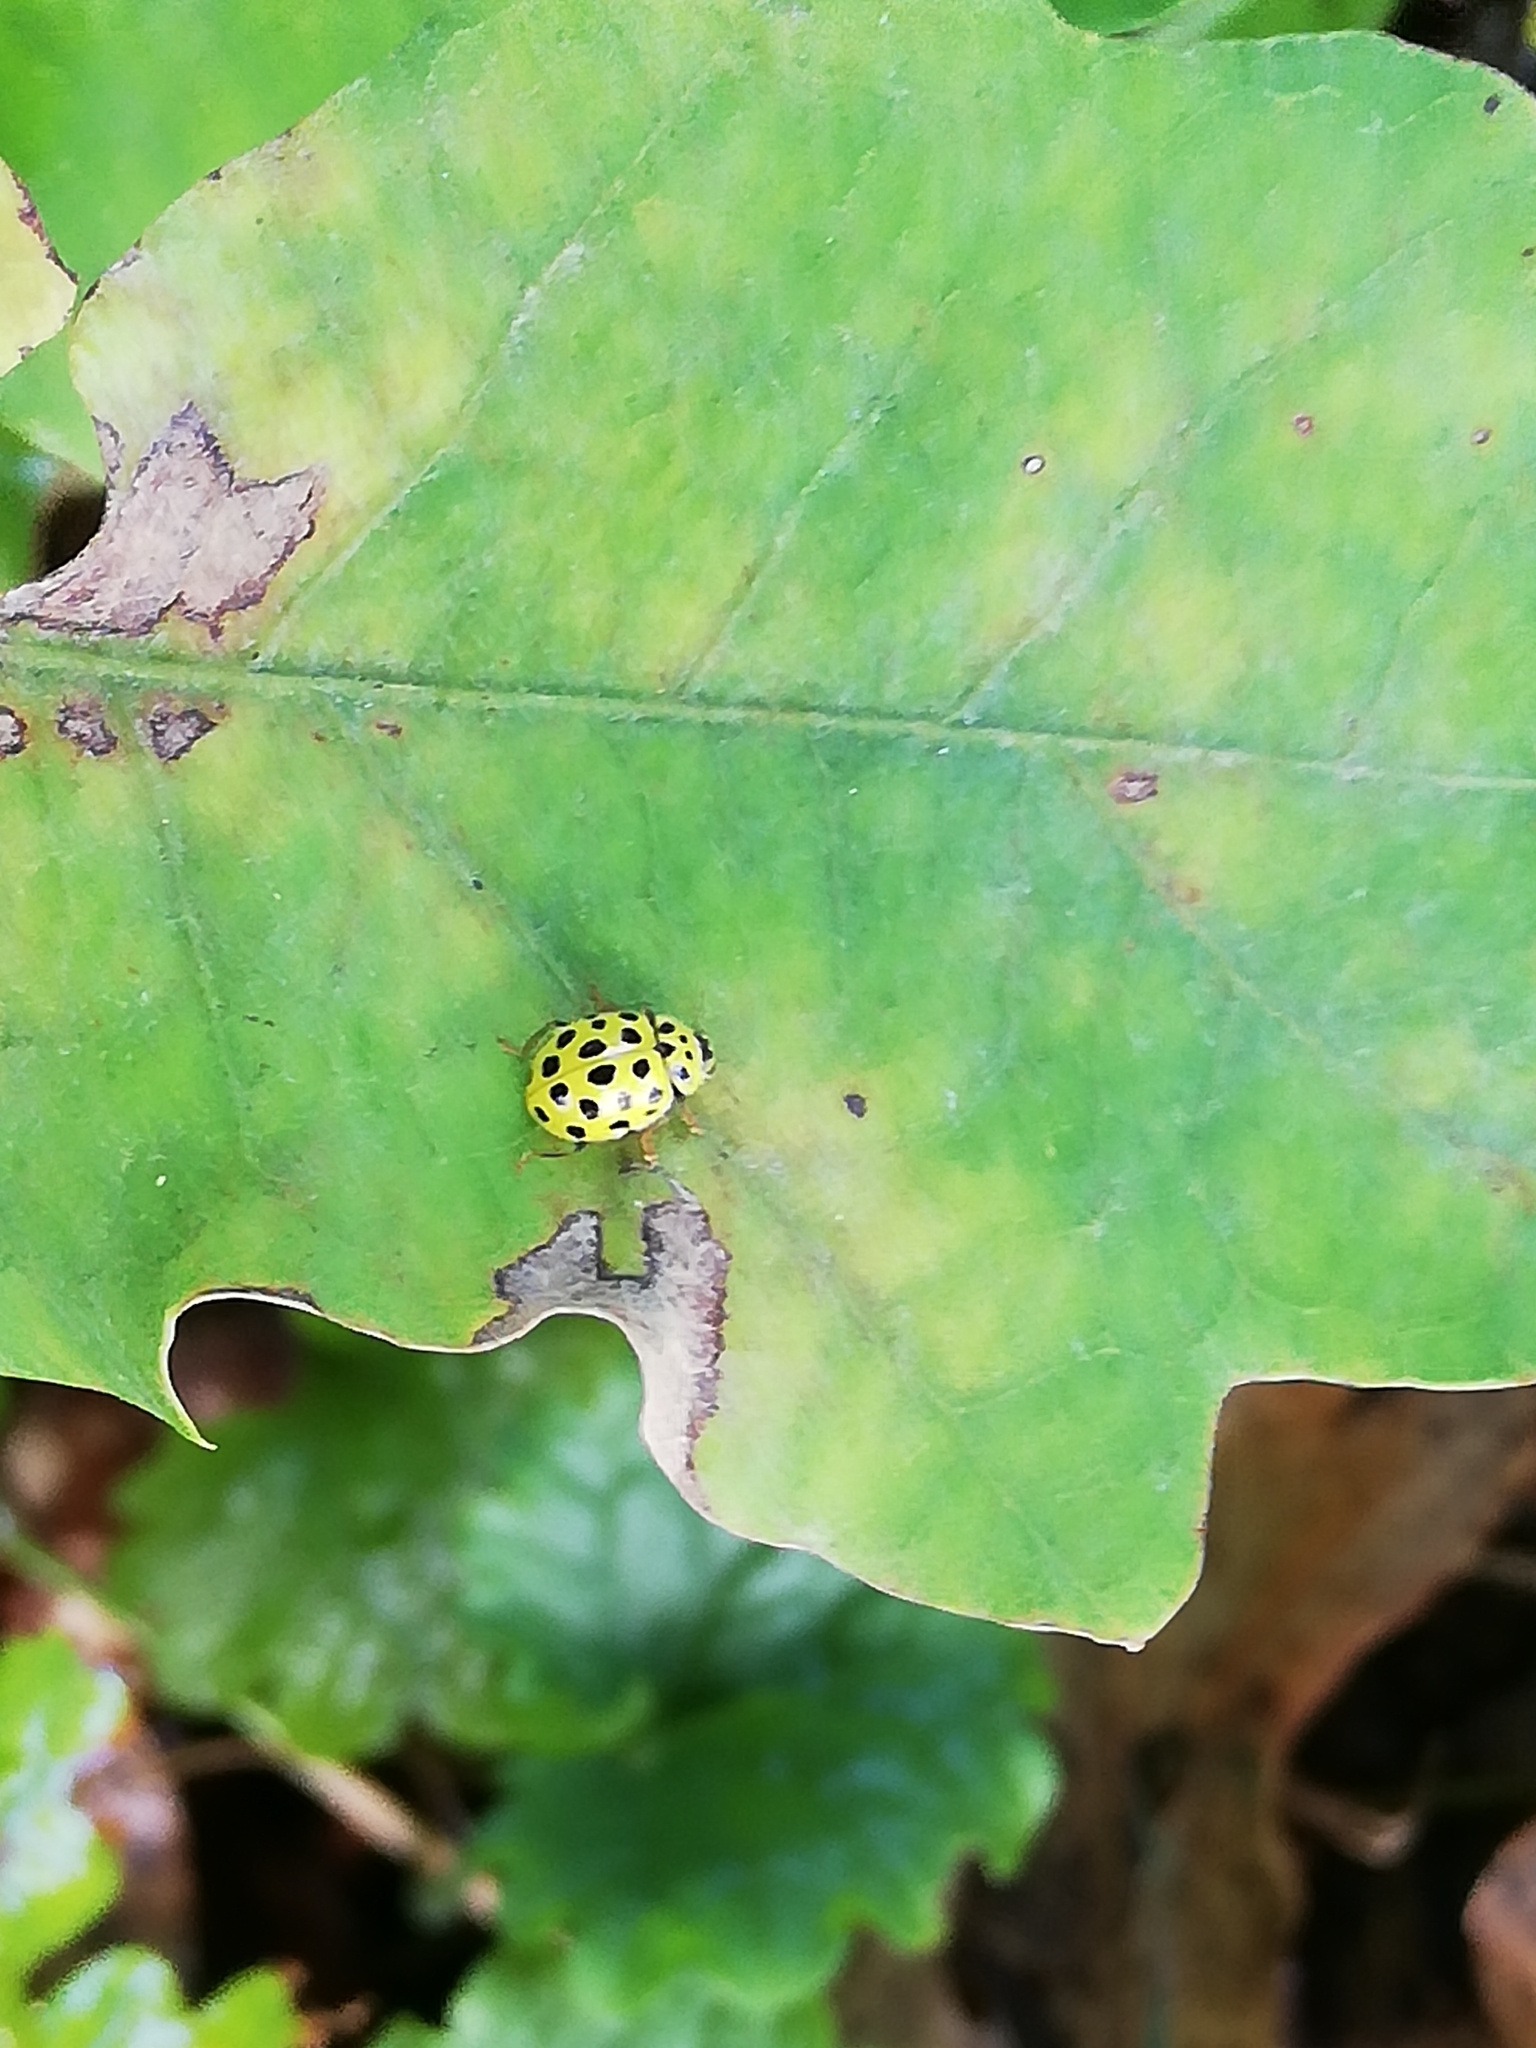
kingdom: Animalia
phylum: Arthropoda
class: Insecta
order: Coleoptera
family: Coccinellidae
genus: Psyllobora
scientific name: Psyllobora vigintiduopunctata
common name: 22-spot ladybird
